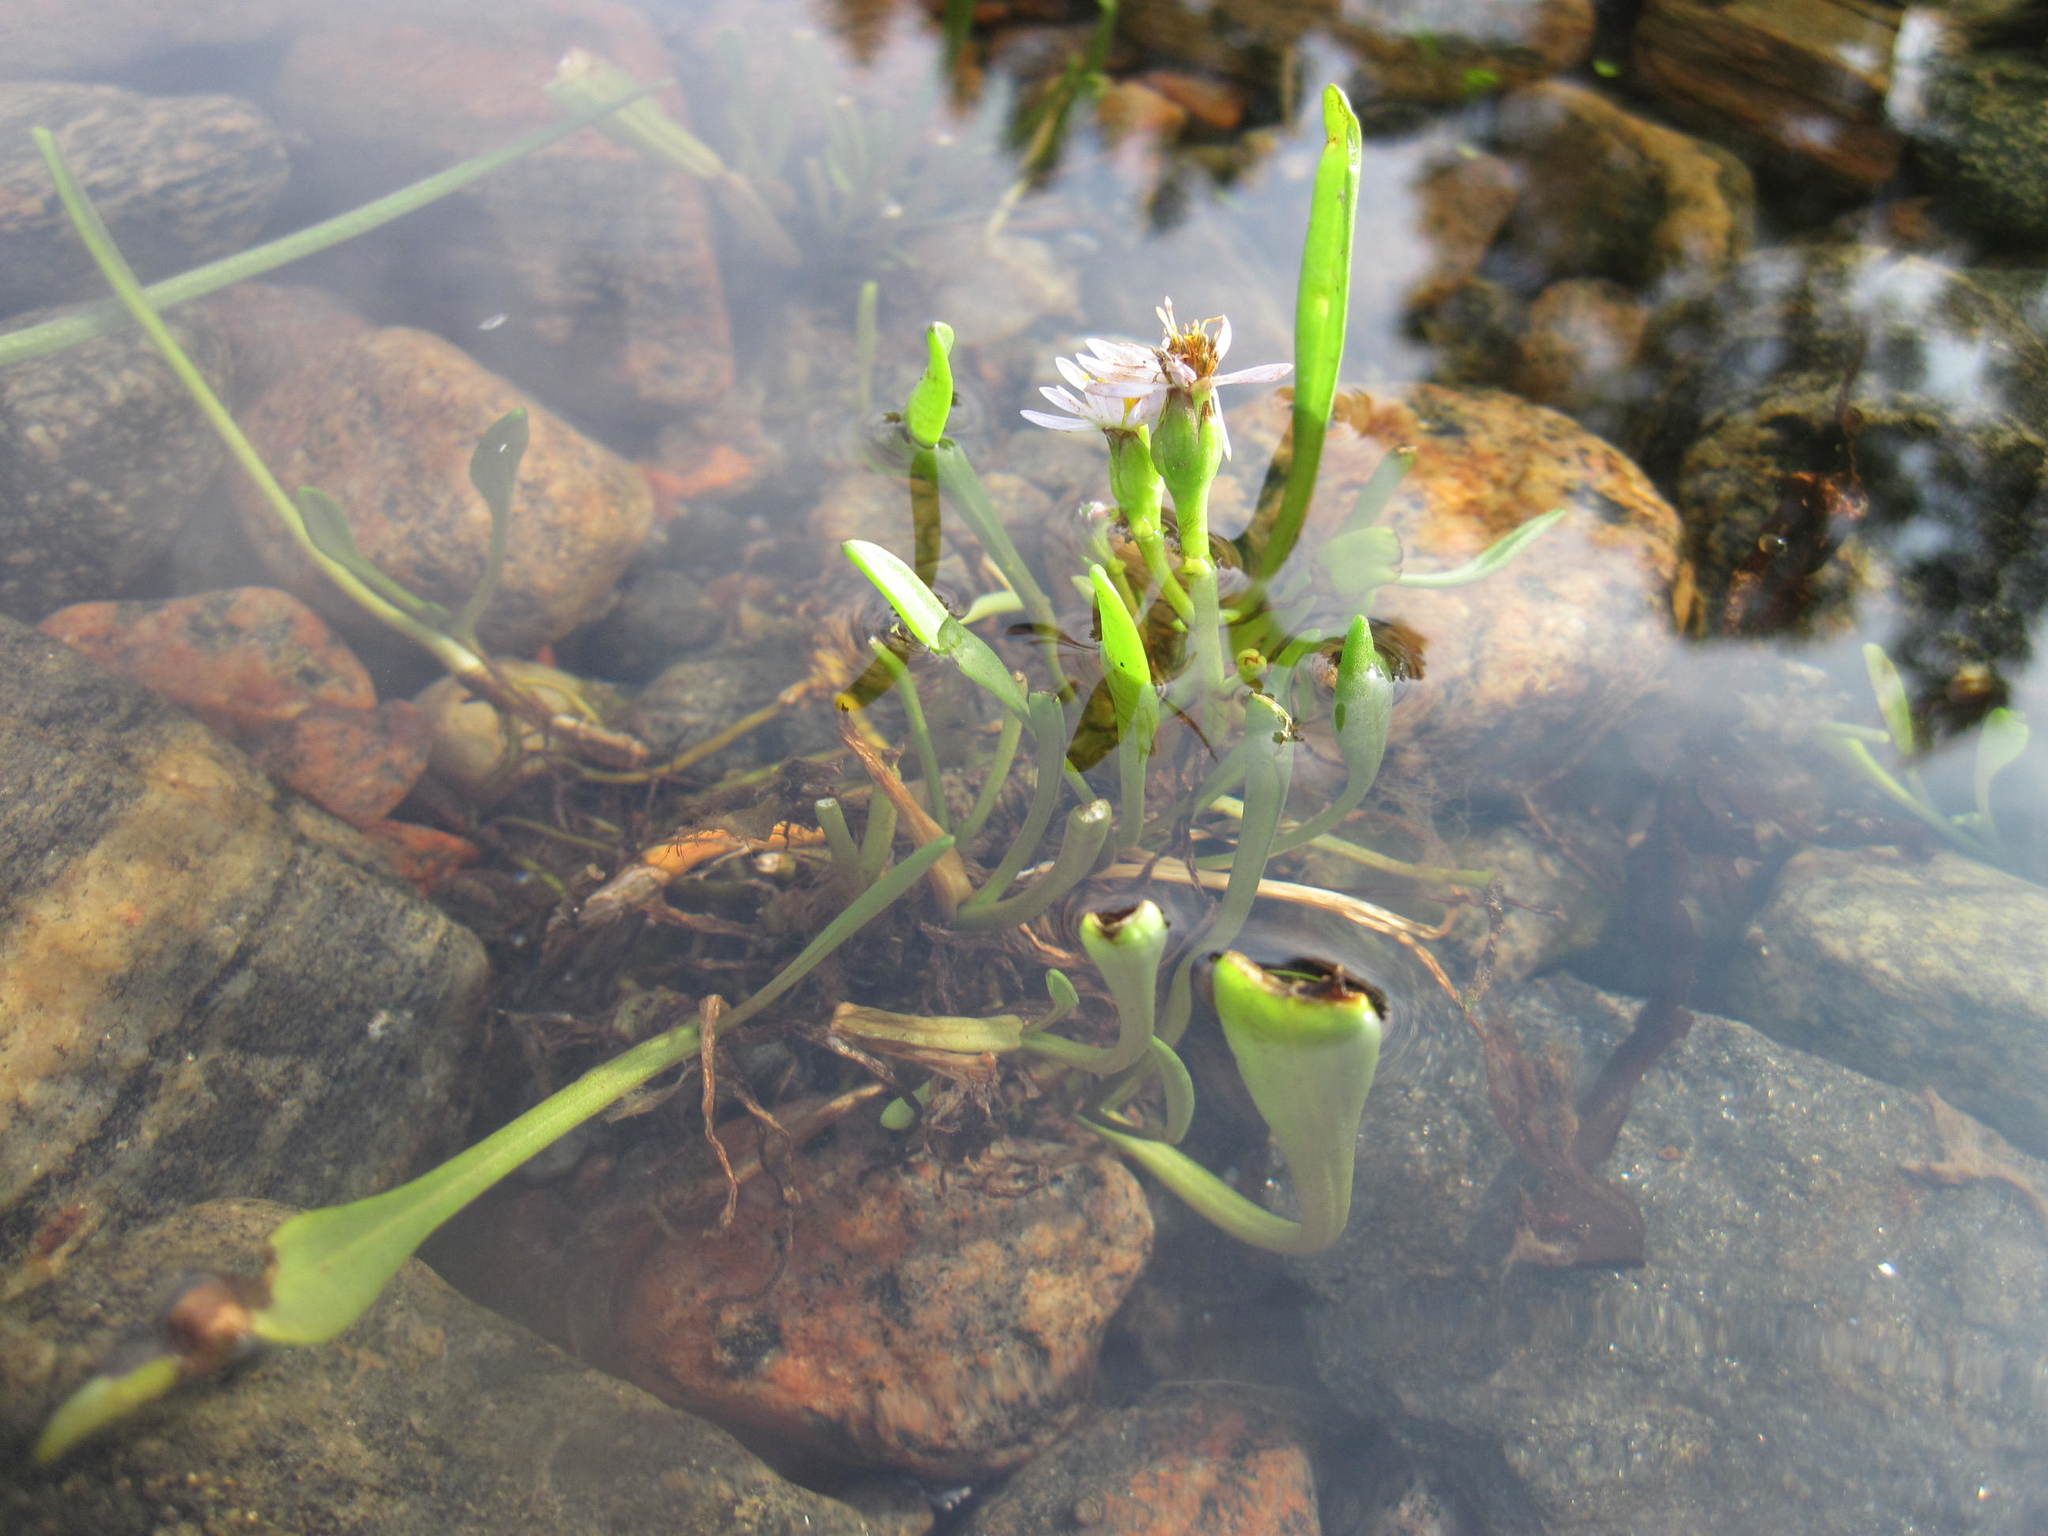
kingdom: Plantae
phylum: Tracheophyta
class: Magnoliopsida
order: Asterales
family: Asteraceae
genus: Tripolium
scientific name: Tripolium pannonicum
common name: Sea aster
